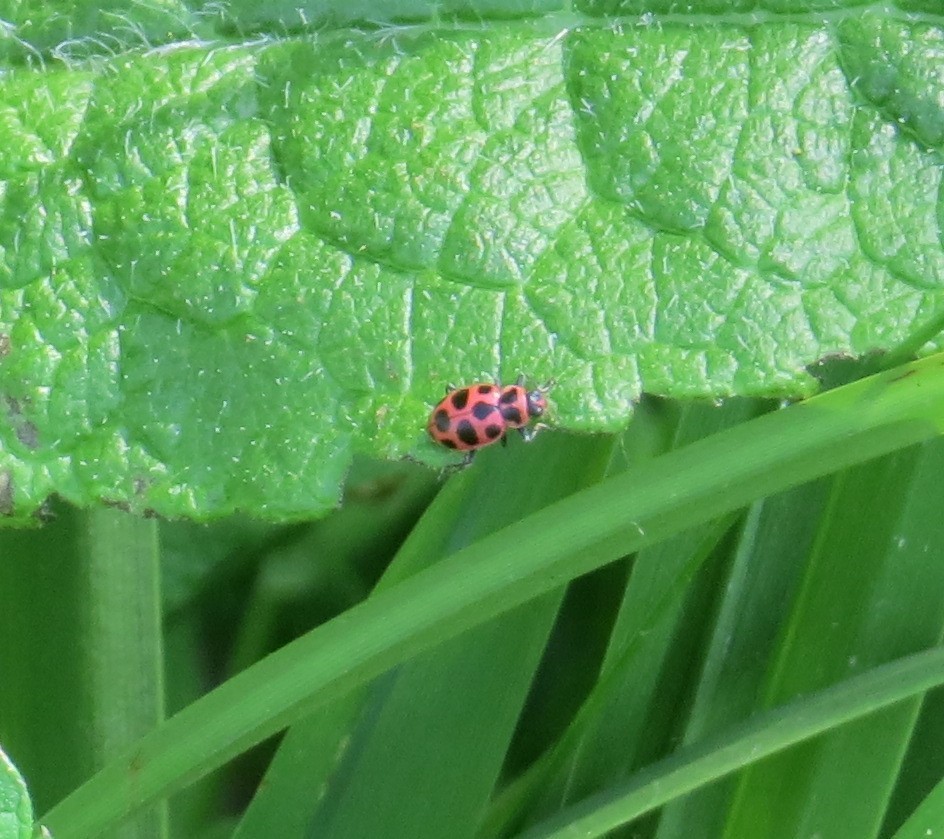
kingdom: Animalia
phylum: Arthropoda
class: Insecta
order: Coleoptera
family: Coccinellidae
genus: Coleomegilla
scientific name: Coleomegilla maculata
